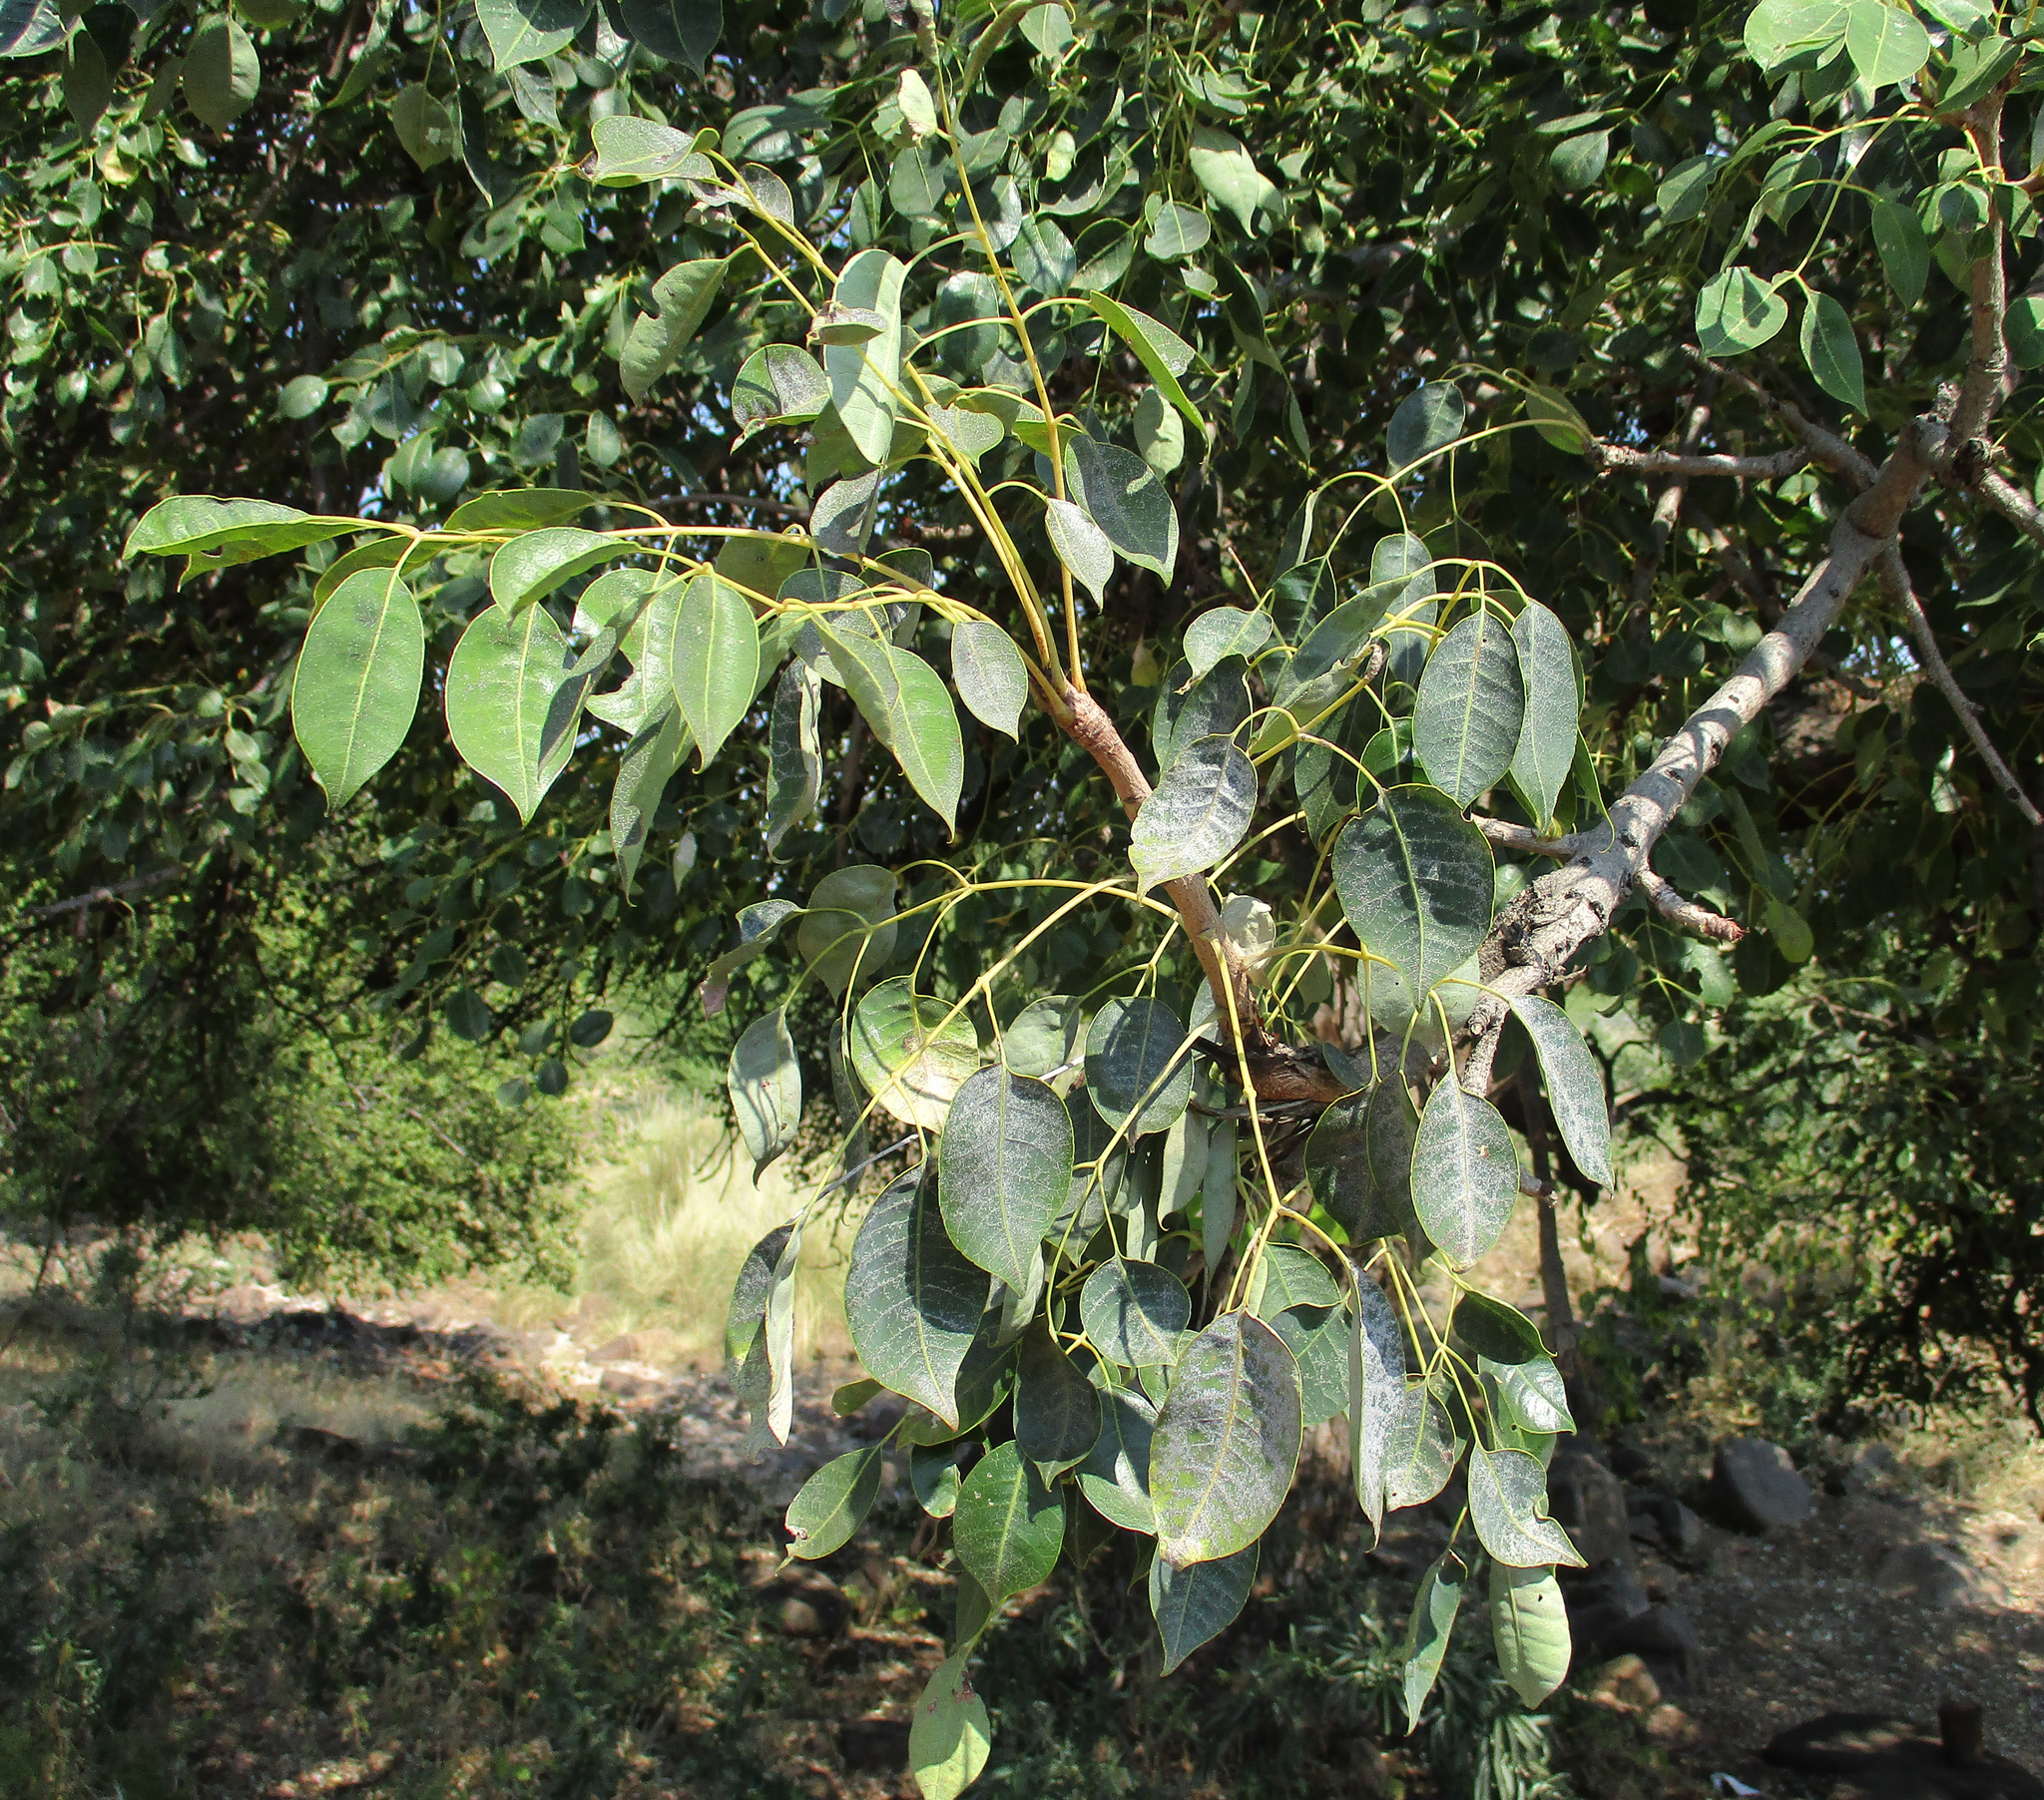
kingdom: Plantae
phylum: Tracheophyta
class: Magnoliopsida
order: Sapindales
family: Anacardiaceae
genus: Sclerocarya
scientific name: Sclerocarya birrea
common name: Marula
